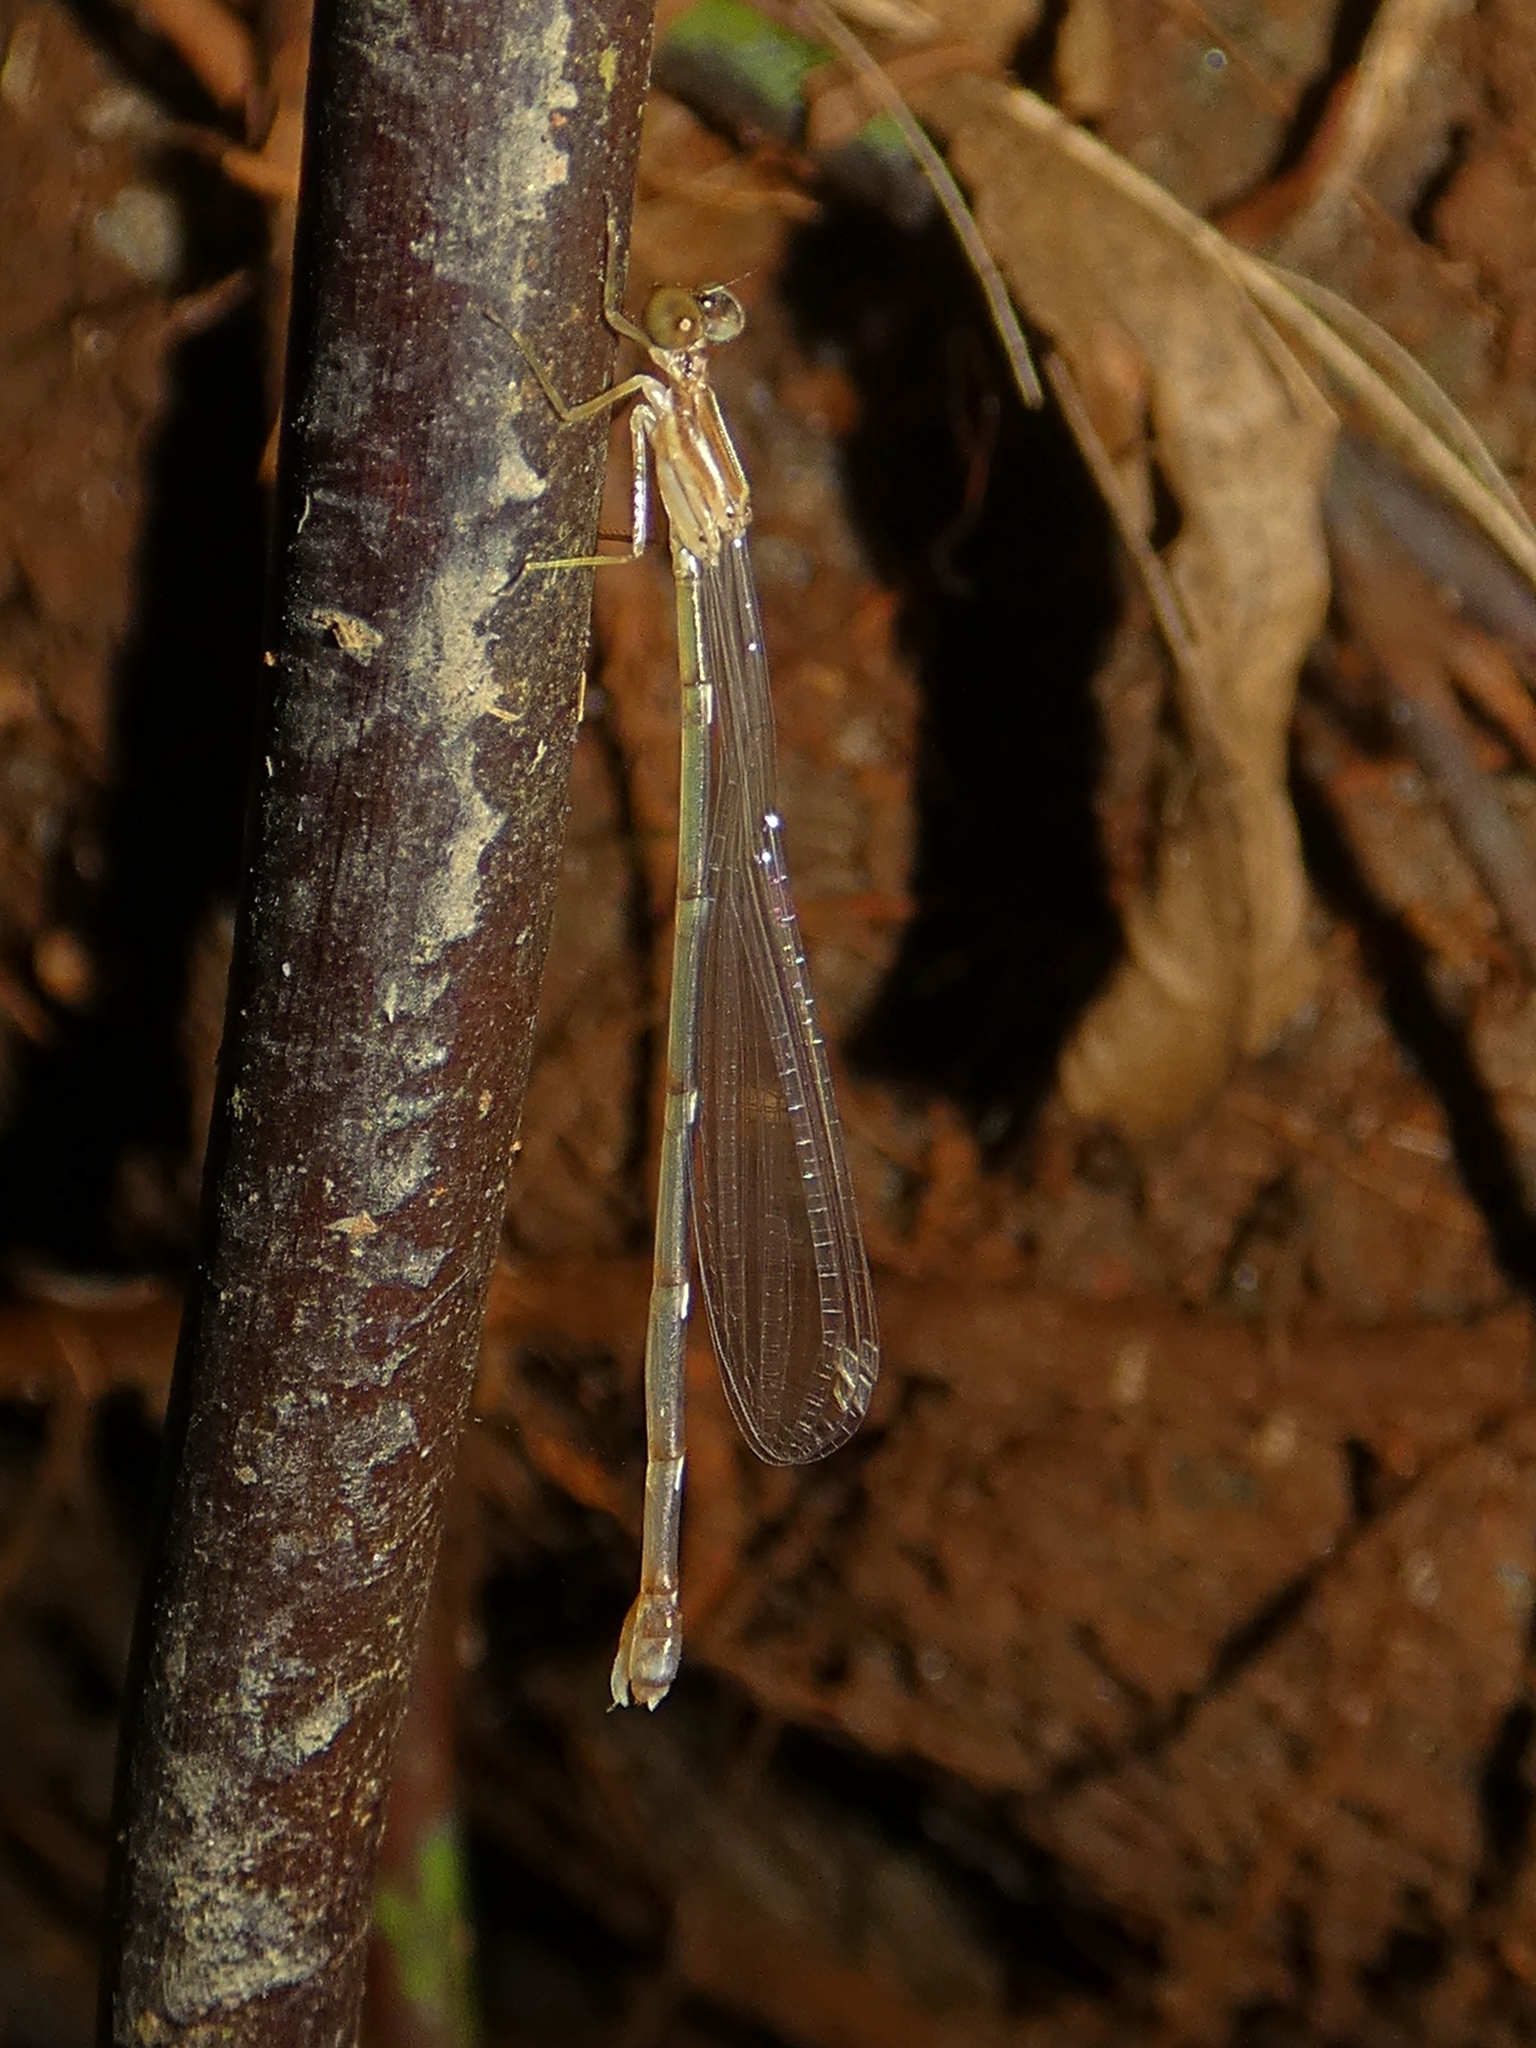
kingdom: Animalia
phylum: Arthropoda
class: Insecta
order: Odonata
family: Isostictidae
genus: Oristicta
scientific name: Oristicta filicicola
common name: Slender wiretail
